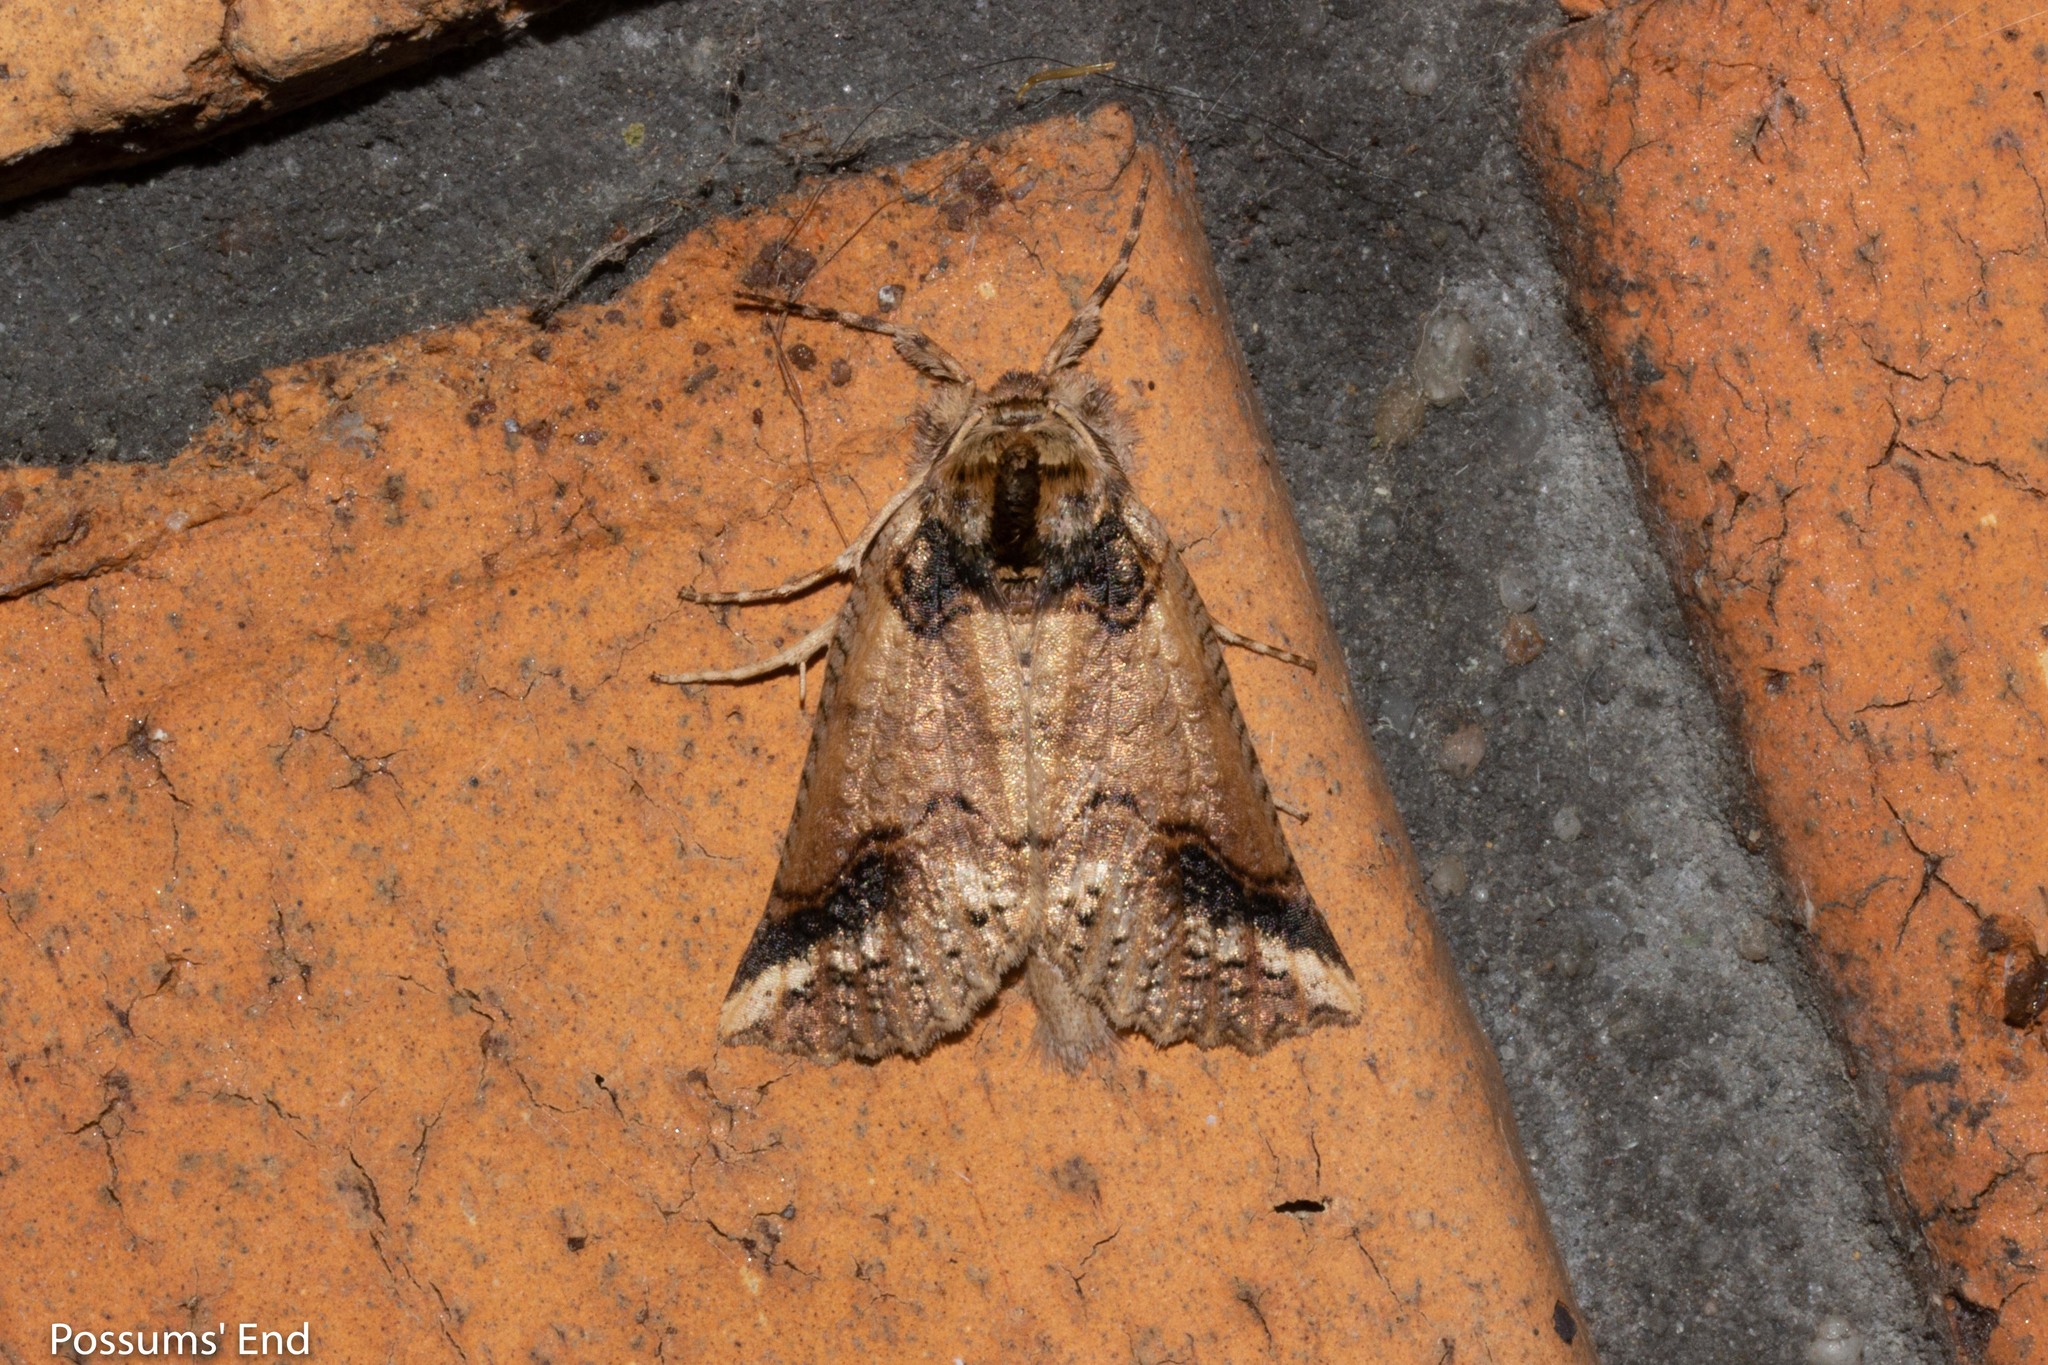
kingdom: Animalia
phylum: Arthropoda
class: Insecta
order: Lepidoptera
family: Geometridae
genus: Declana
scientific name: Declana
